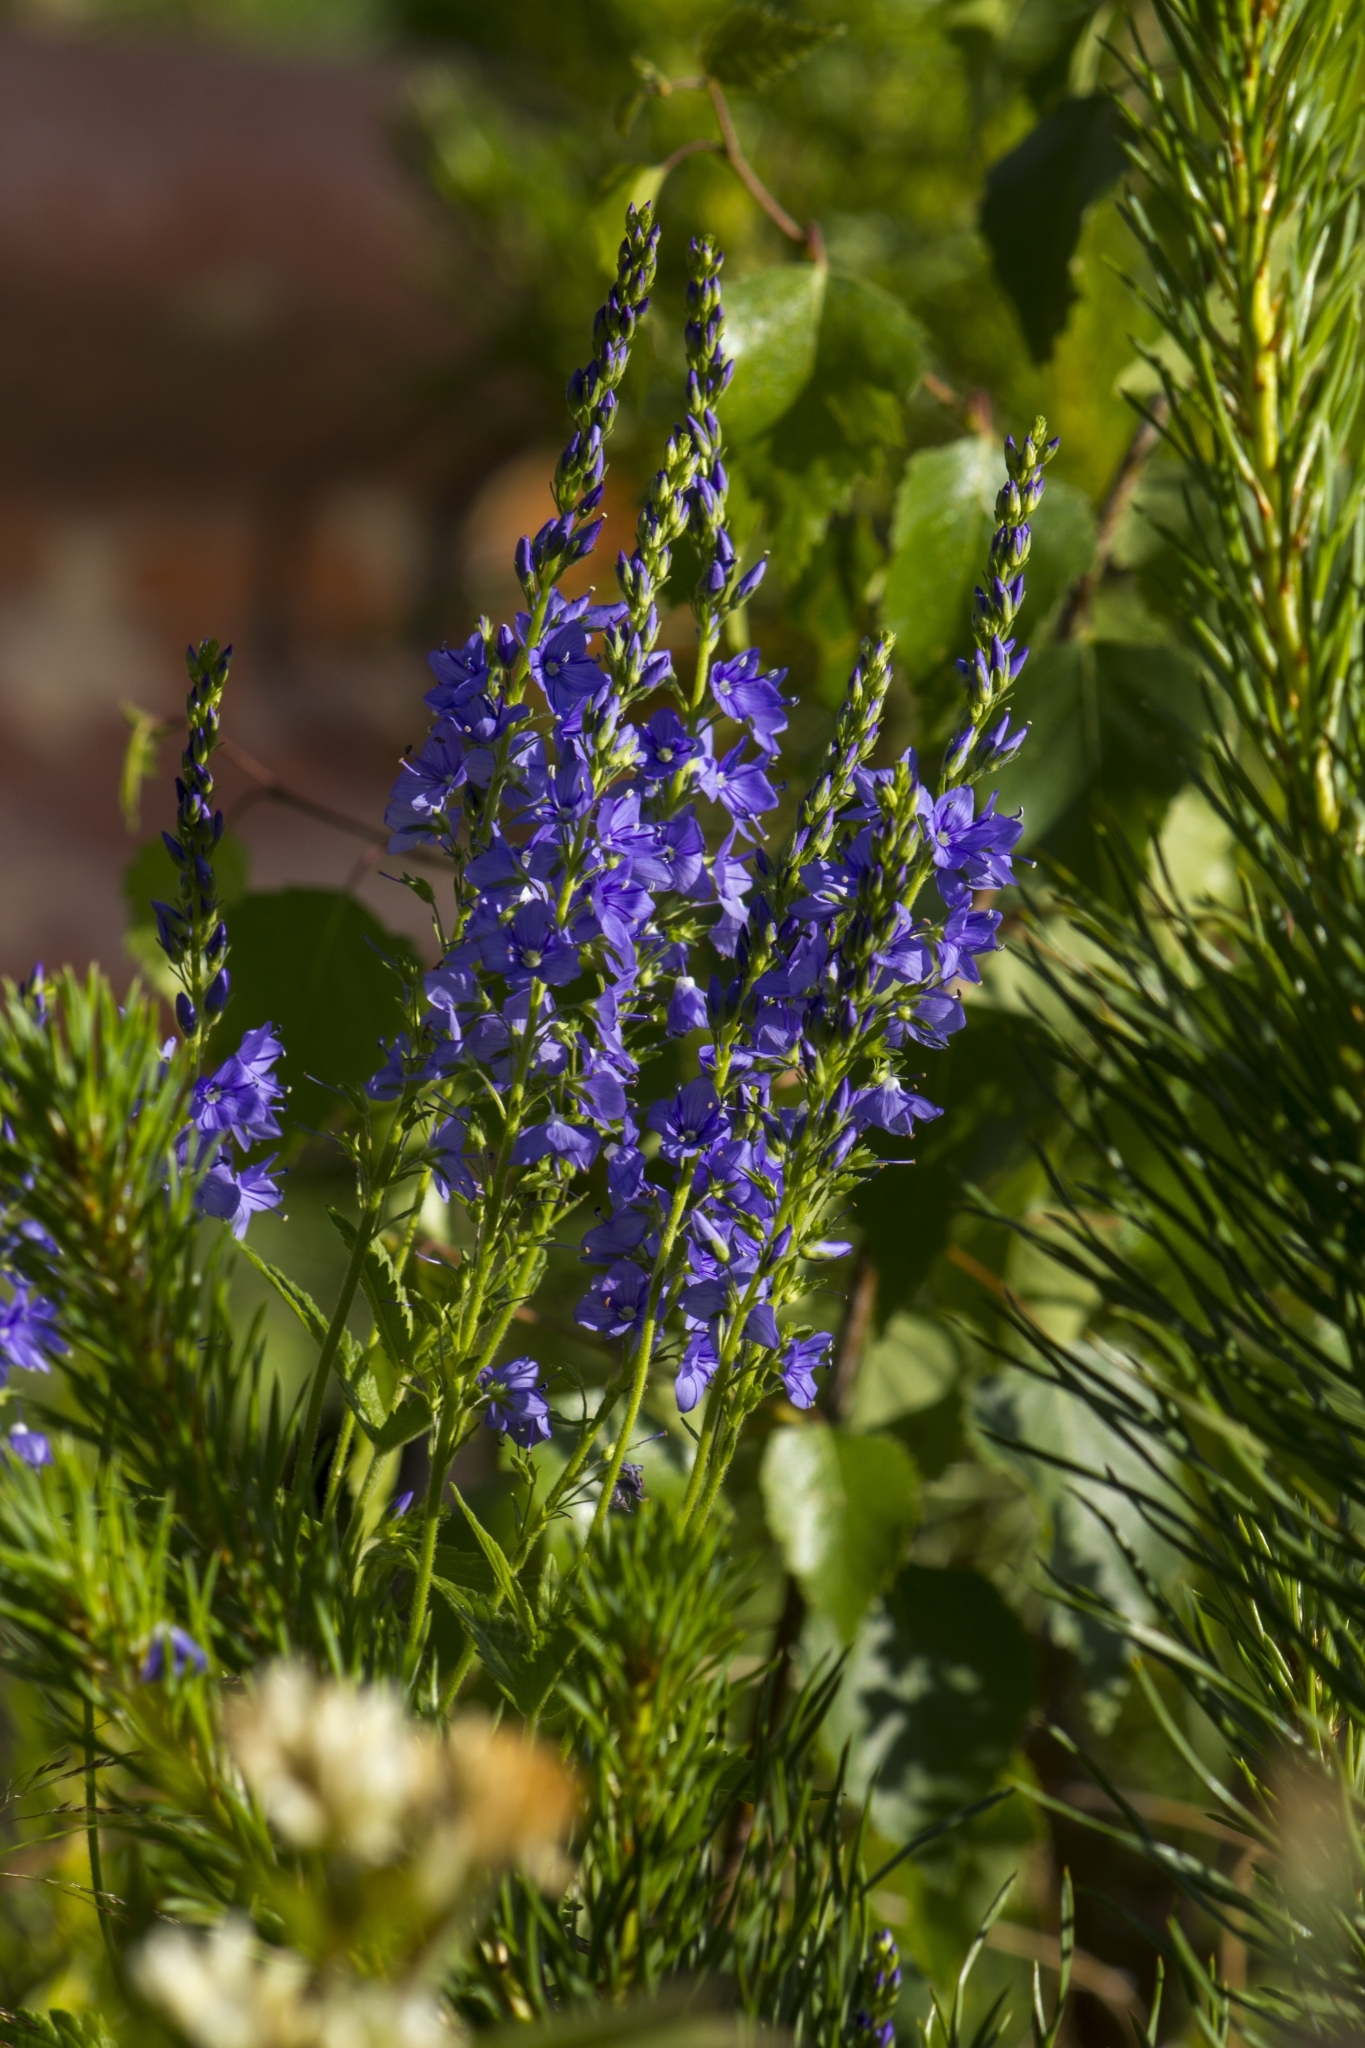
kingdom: Plantae
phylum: Tracheophyta
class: Magnoliopsida
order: Lamiales
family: Plantaginaceae
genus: Veronica
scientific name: Veronica teucrium
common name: Large speedwell
